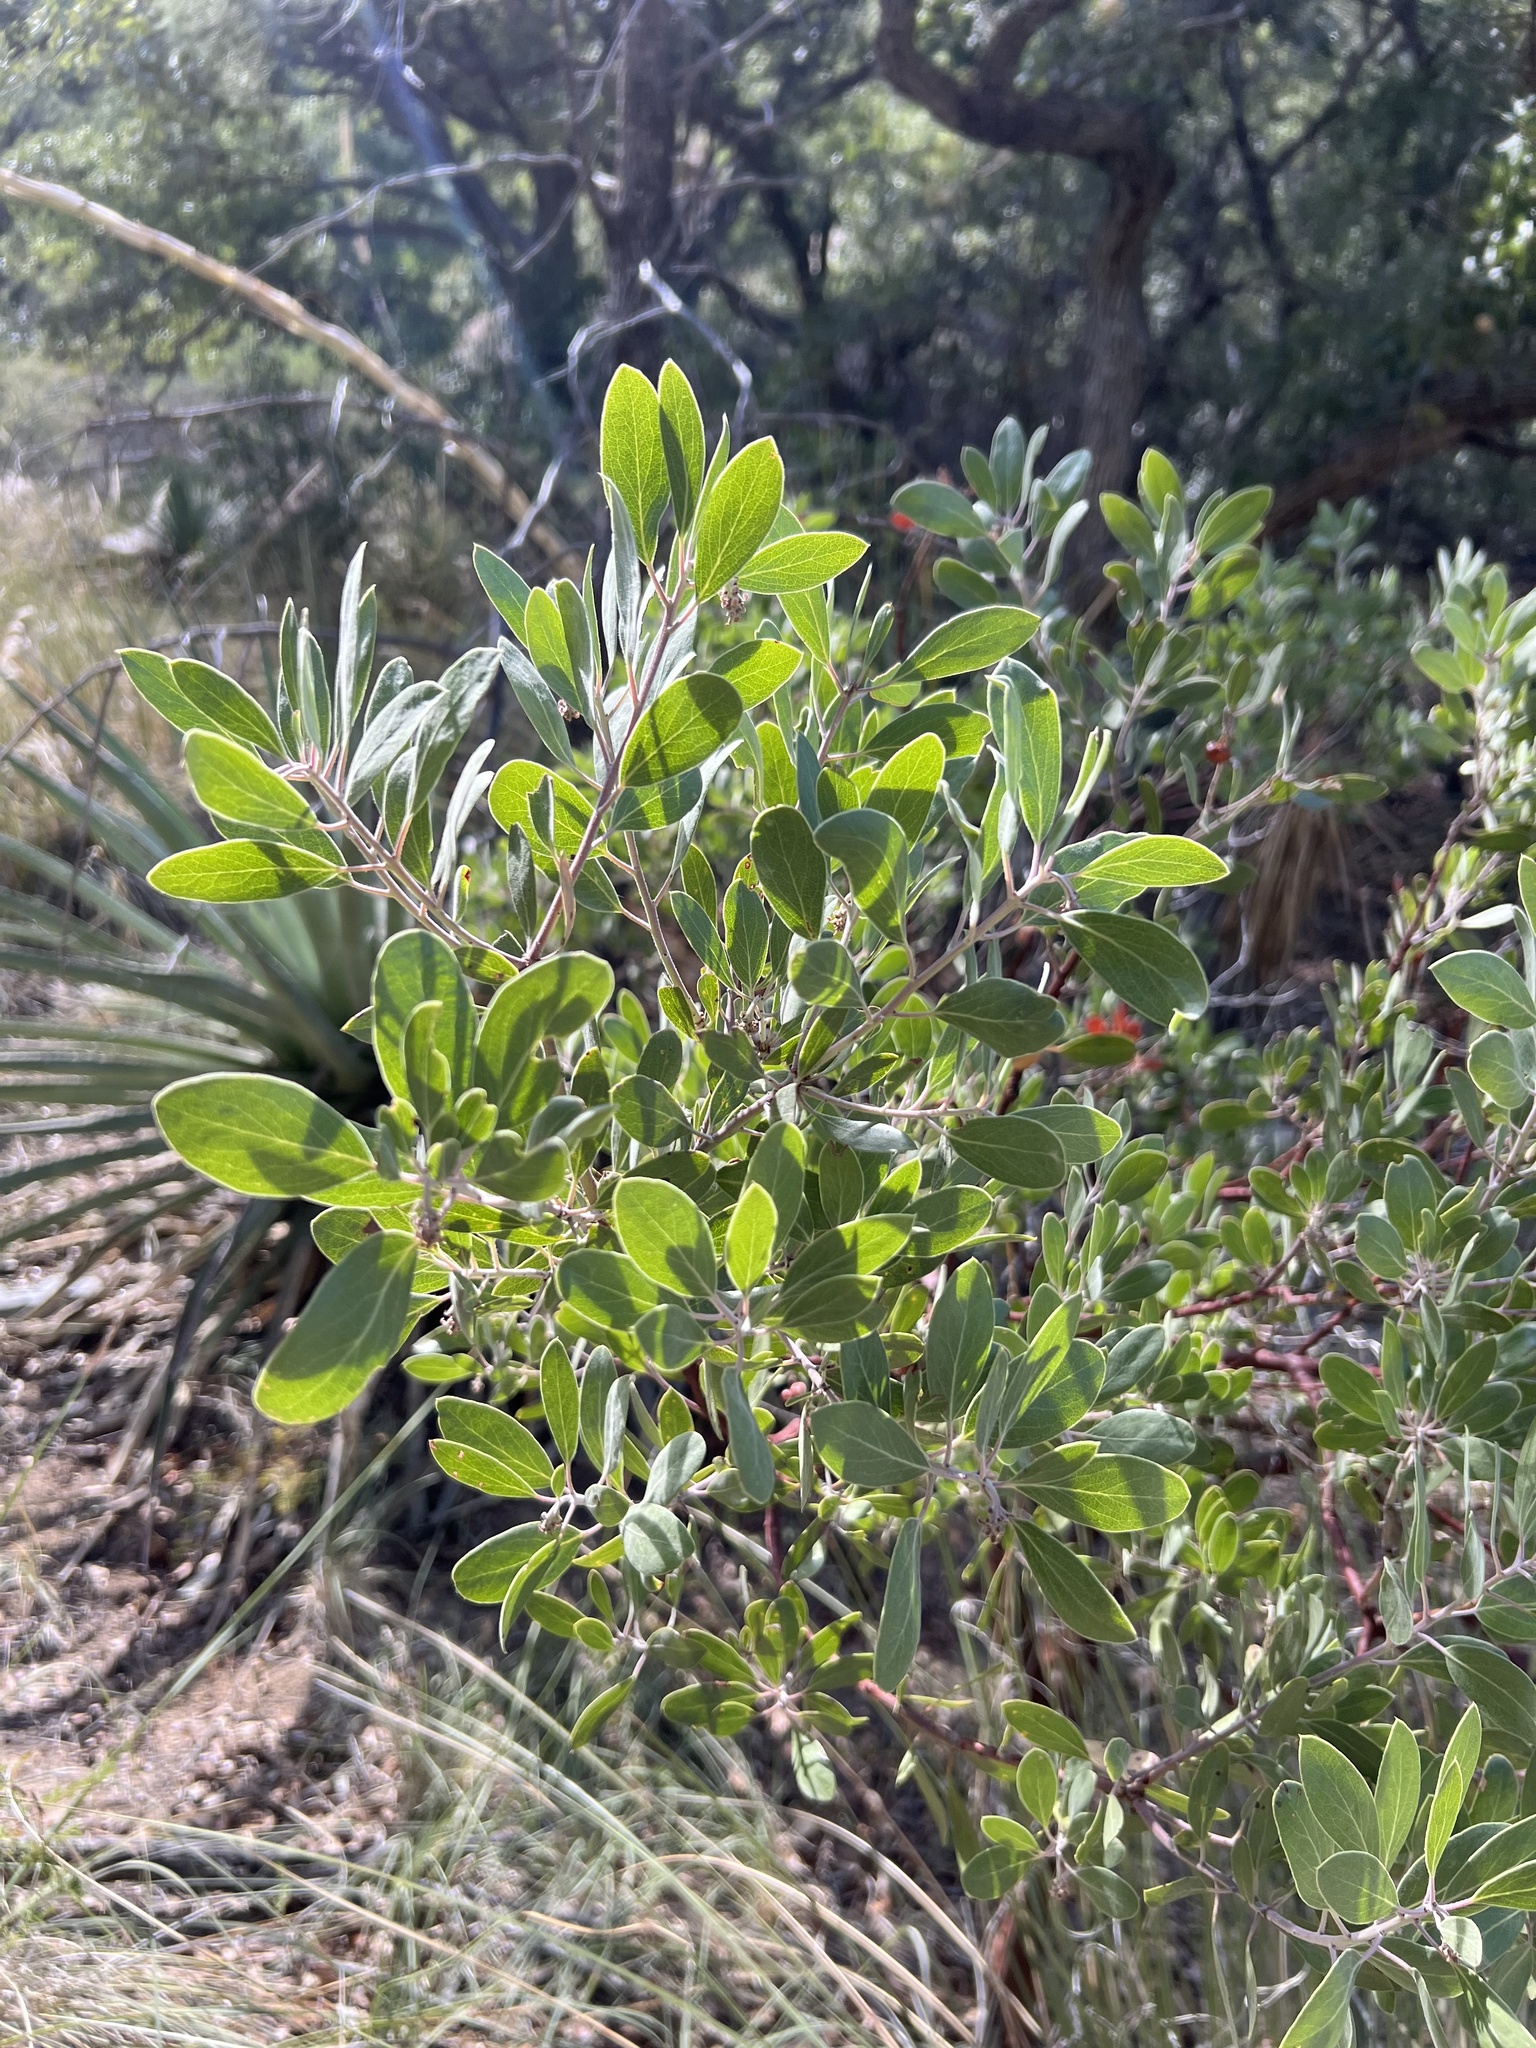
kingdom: Plantae
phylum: Tracheophyta
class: Magnoliopsida
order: Ericales
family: Ericaceae
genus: Arctostaphylos
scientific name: Arctostaphylos pungens
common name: Mexican manzanita
